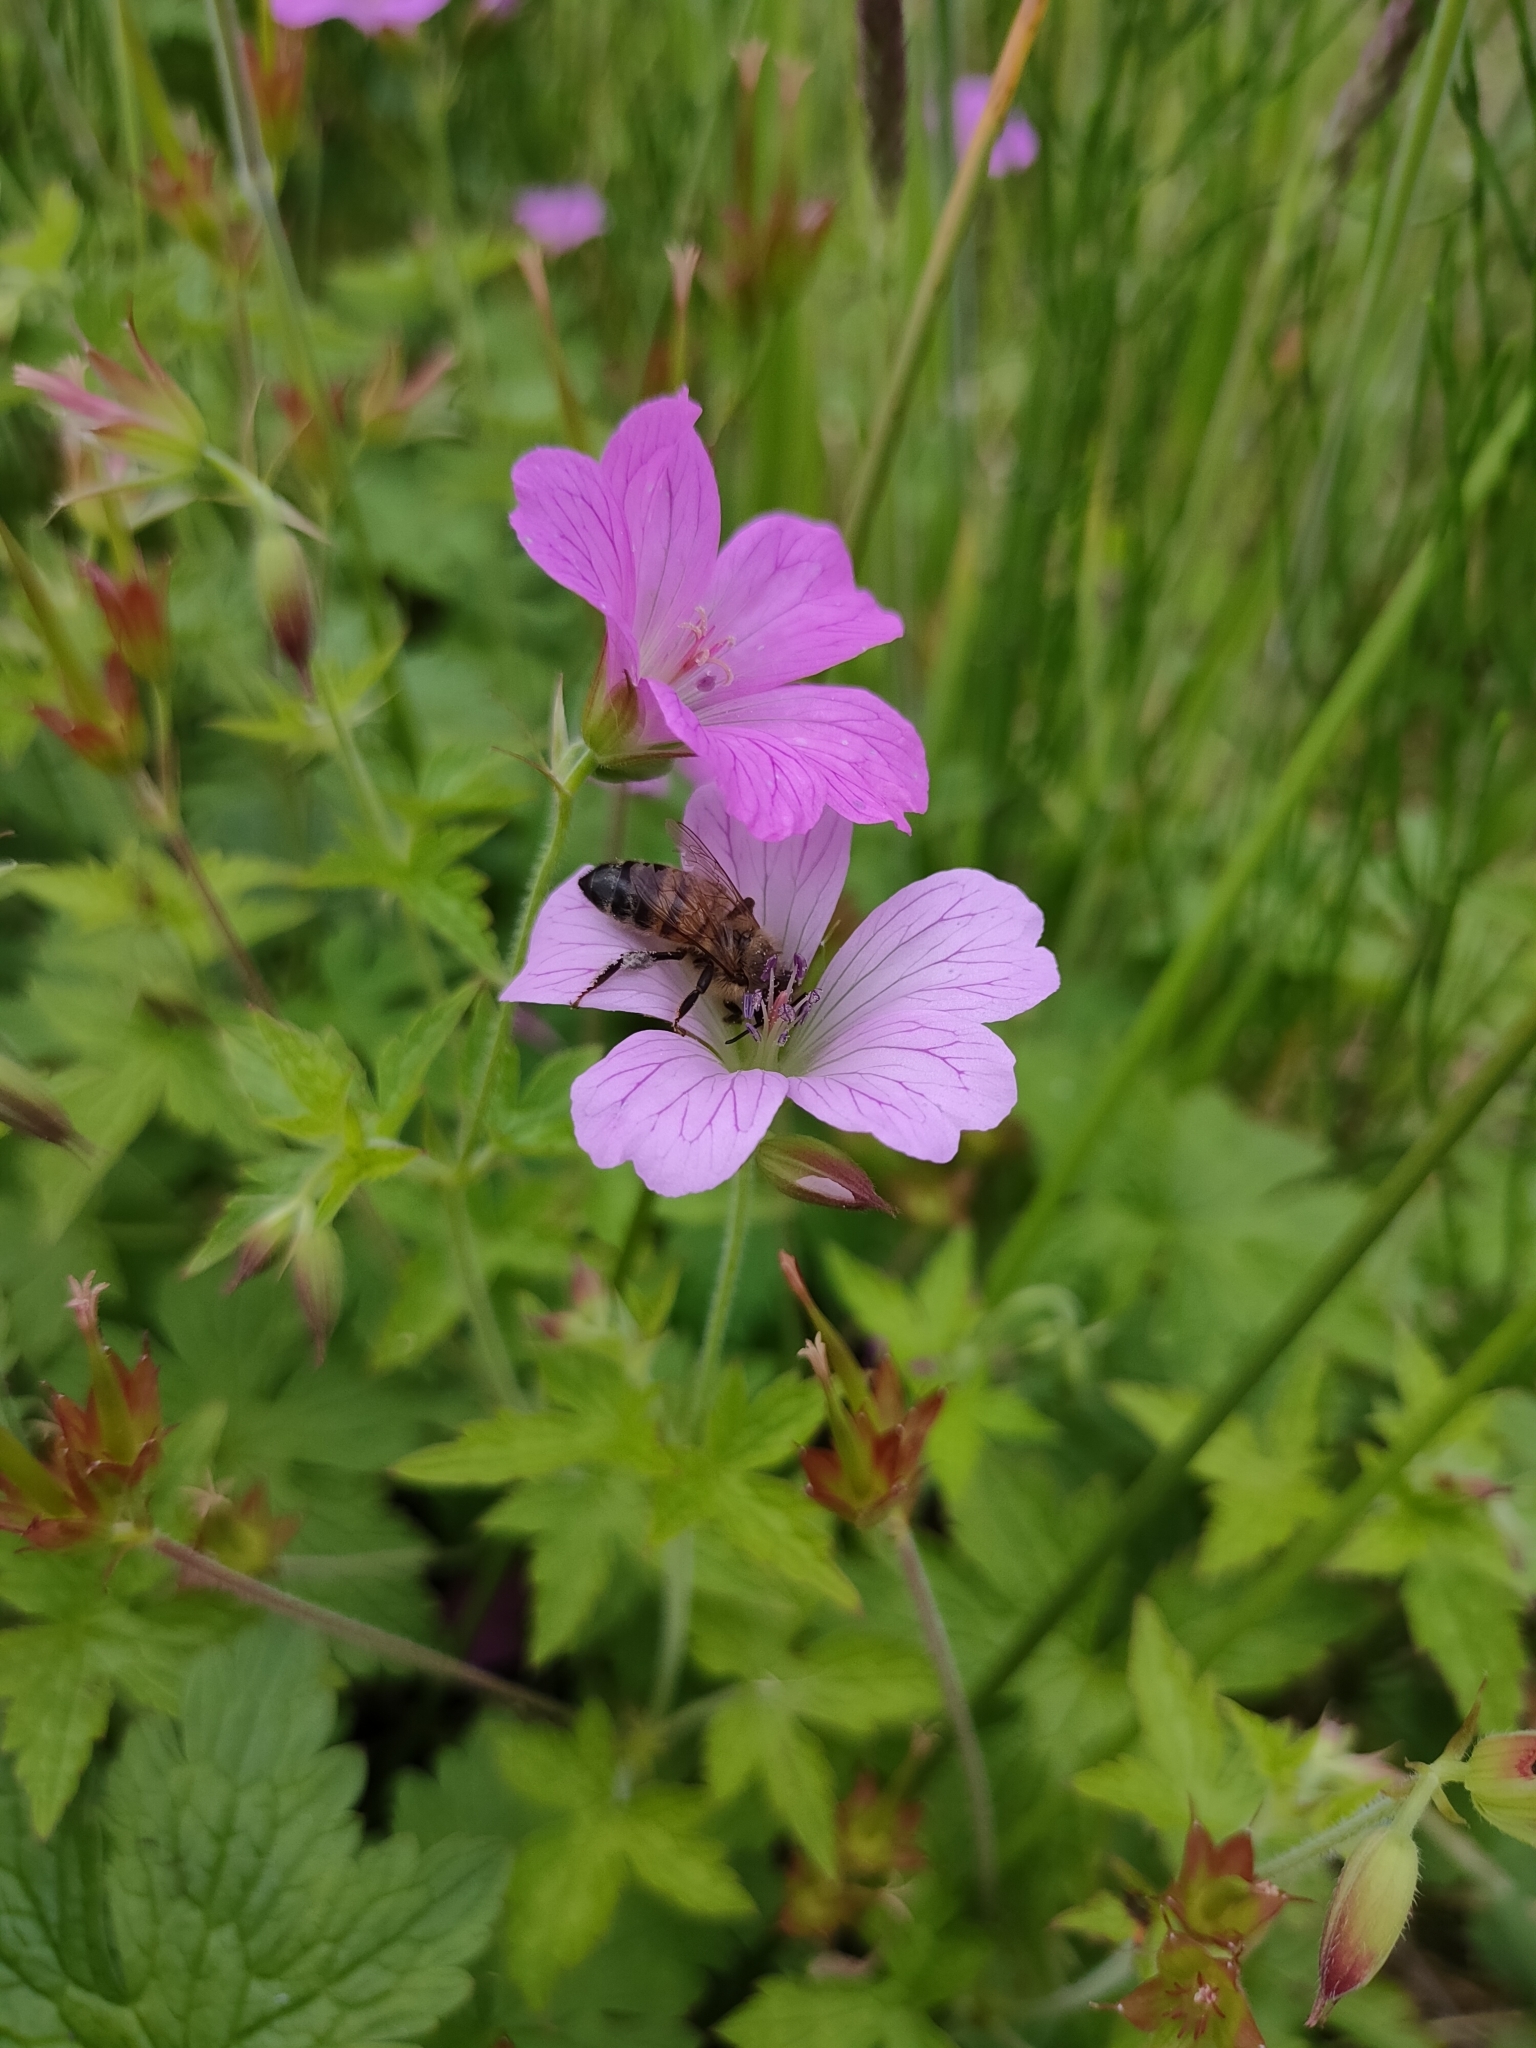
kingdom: Animalia
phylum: Arthropoda
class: Insecta
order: Hymenoptera
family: Apidae
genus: Apis
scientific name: Apis mellifera
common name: Honey bee
